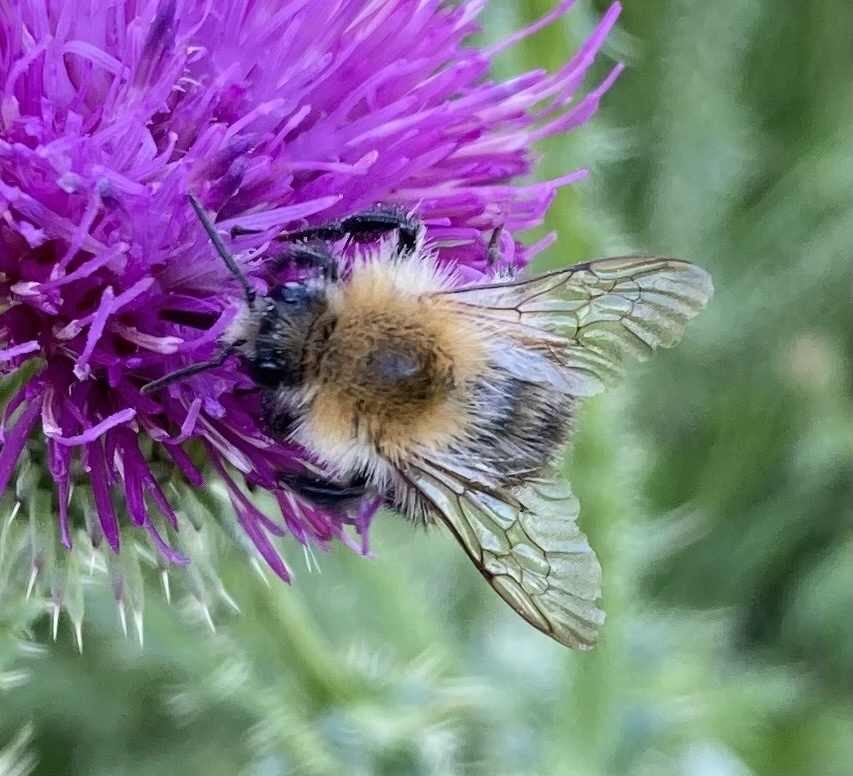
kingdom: Animalia
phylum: Arthropoda
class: Insecta
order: Hymenoptera
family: Apidae
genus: Bombus
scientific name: Bombus pascuorum
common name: Common carder bee
